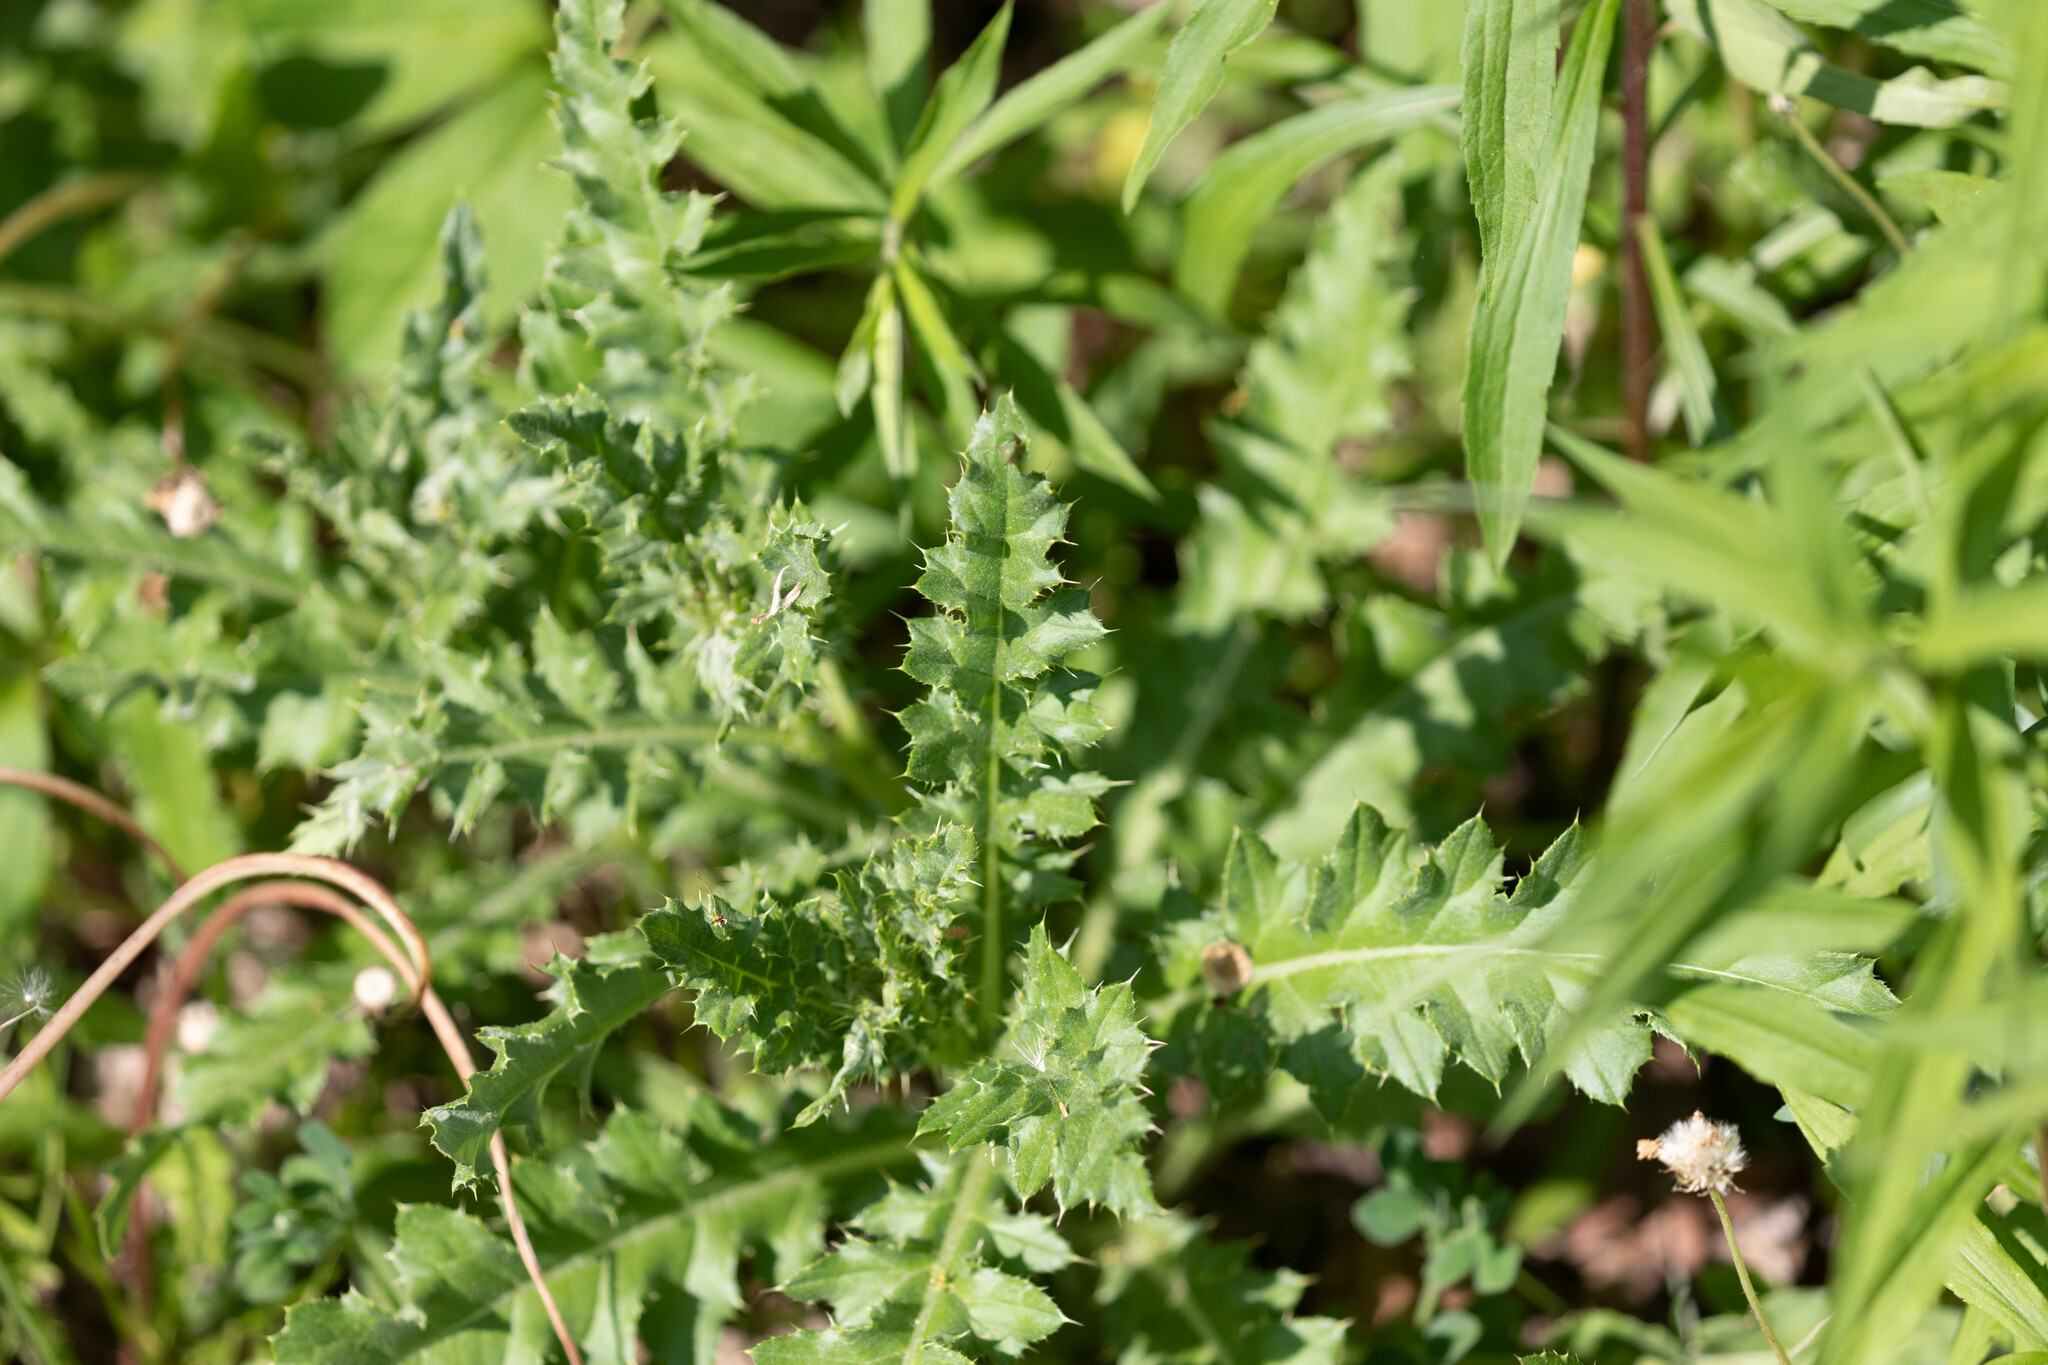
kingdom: Plantae
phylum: Tracheophyta
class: Magnoliopsida
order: Asterales
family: Asteraceae
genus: Cirsium
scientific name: Cirsium arvense
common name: Creeping thistle
